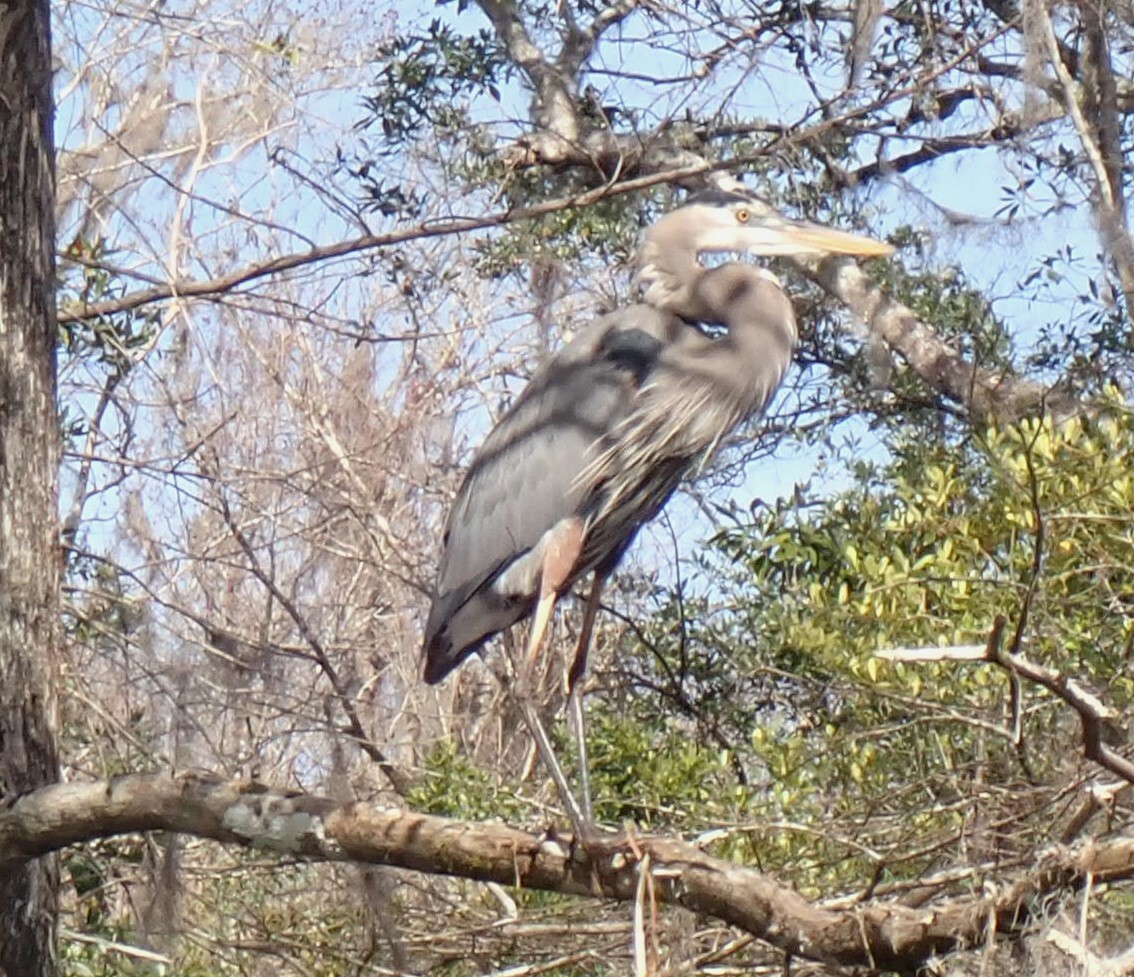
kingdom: Animalia
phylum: Chordata
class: Aves
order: Pelecaniformes
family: Ardeidae
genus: Ardea
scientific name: Ardea herodias
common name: Great blue heron
